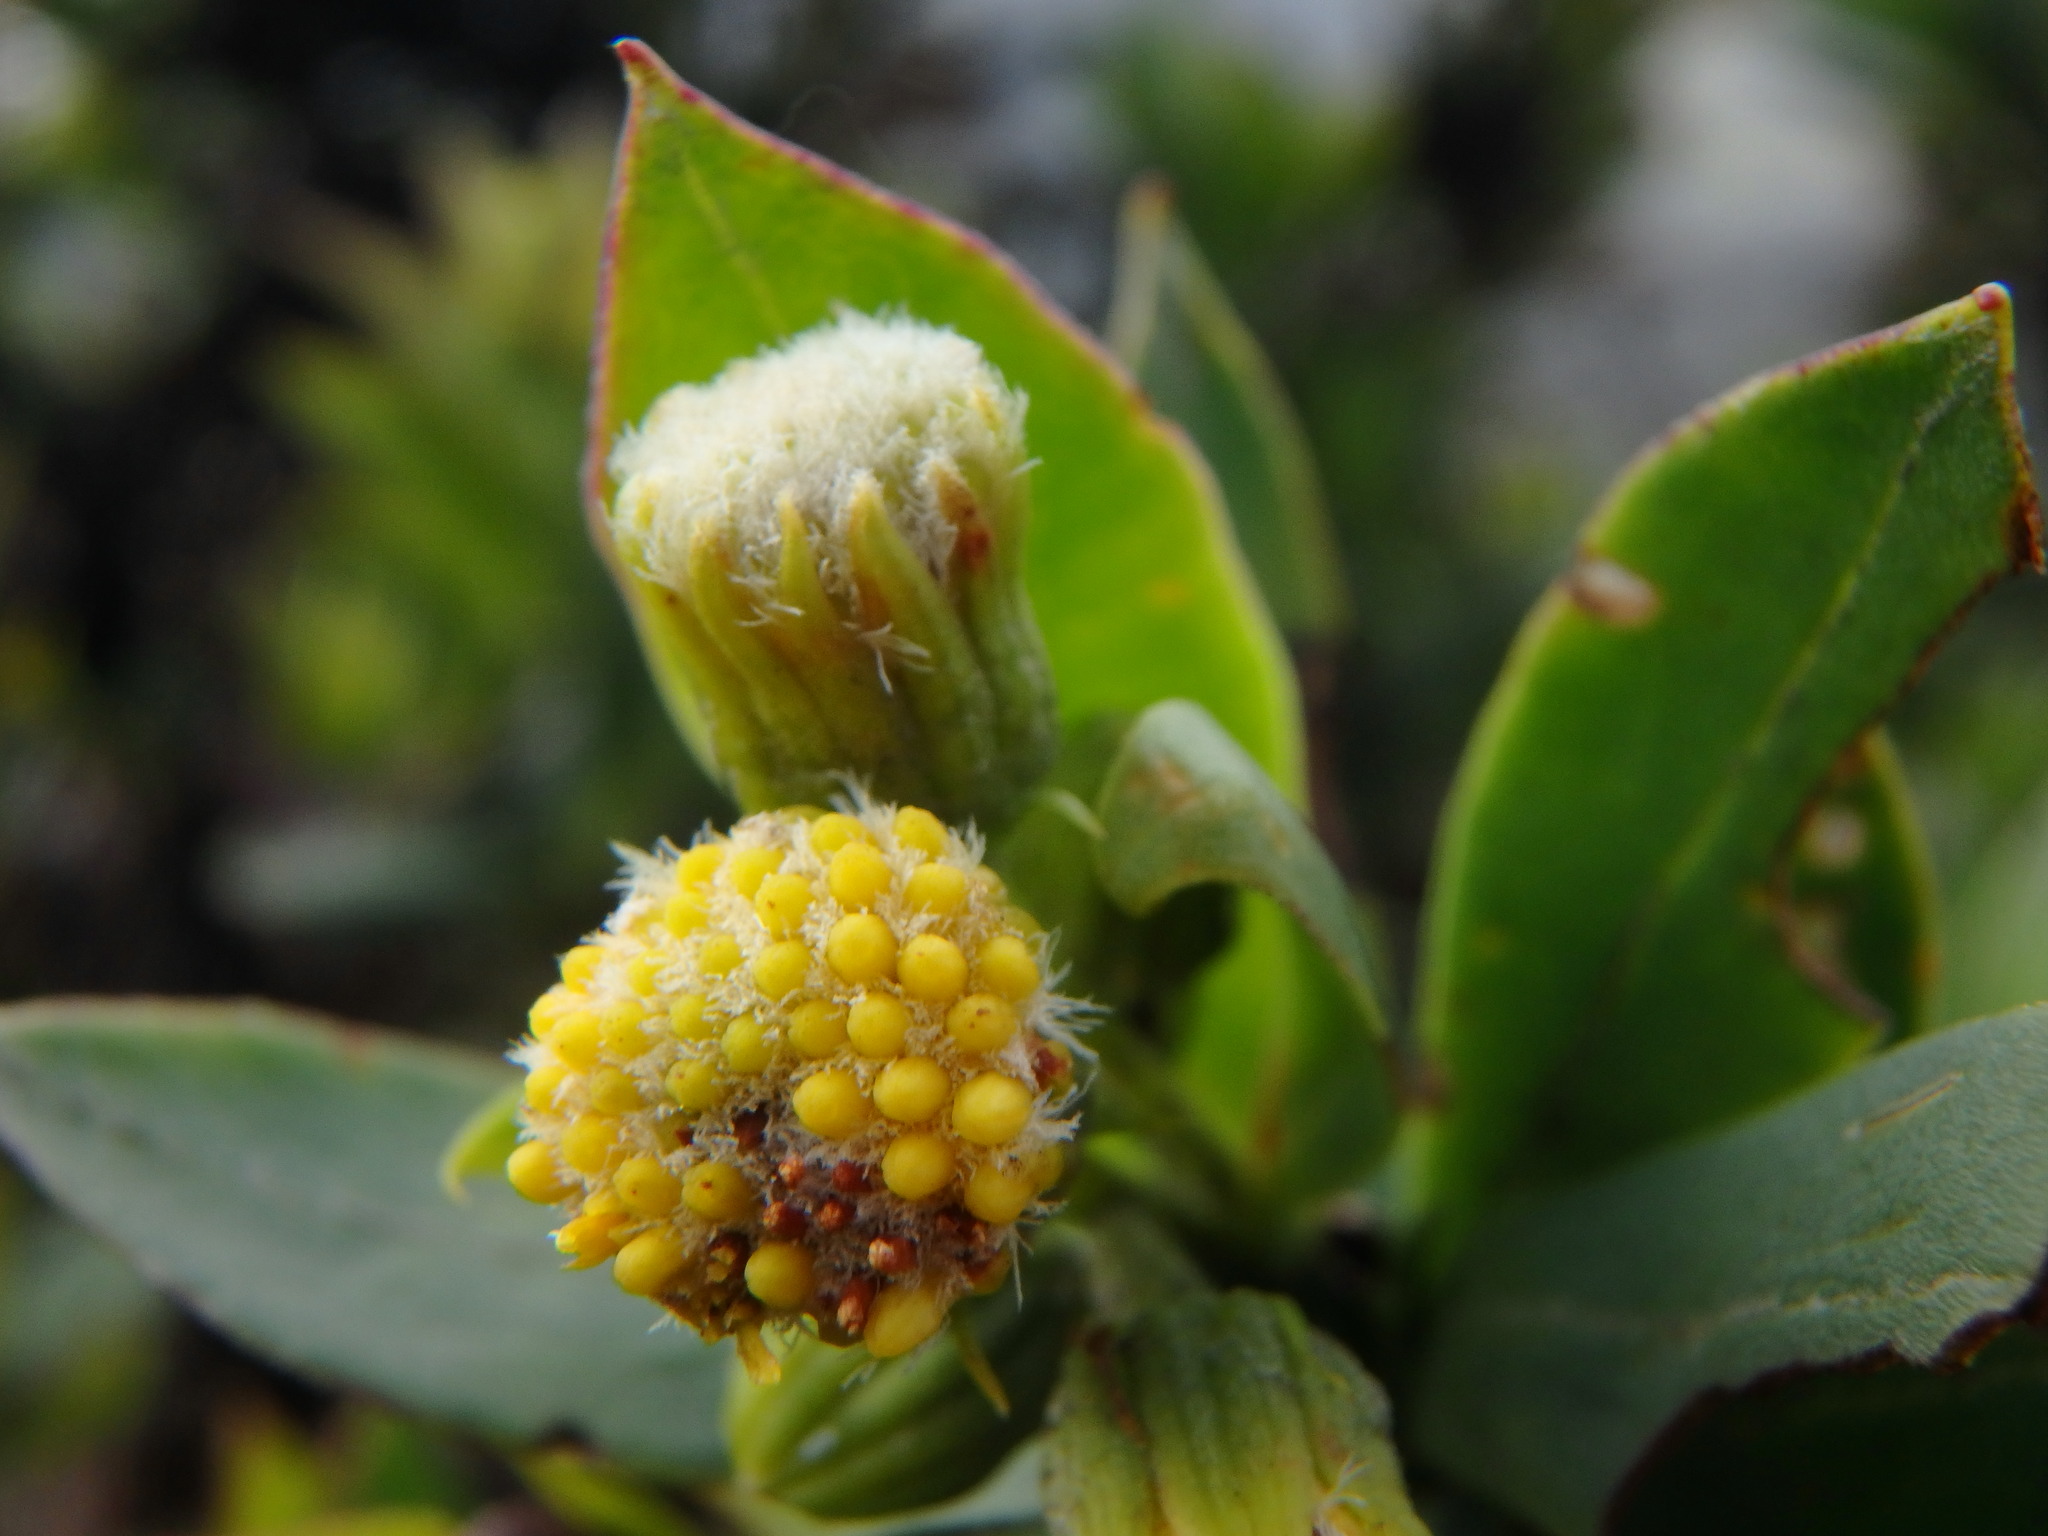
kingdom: Plantae
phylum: Tracheophyta
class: Magnoliopsida
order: Asterales
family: Asteraceae
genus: Monticalia
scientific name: Monticalia vaccinioides
